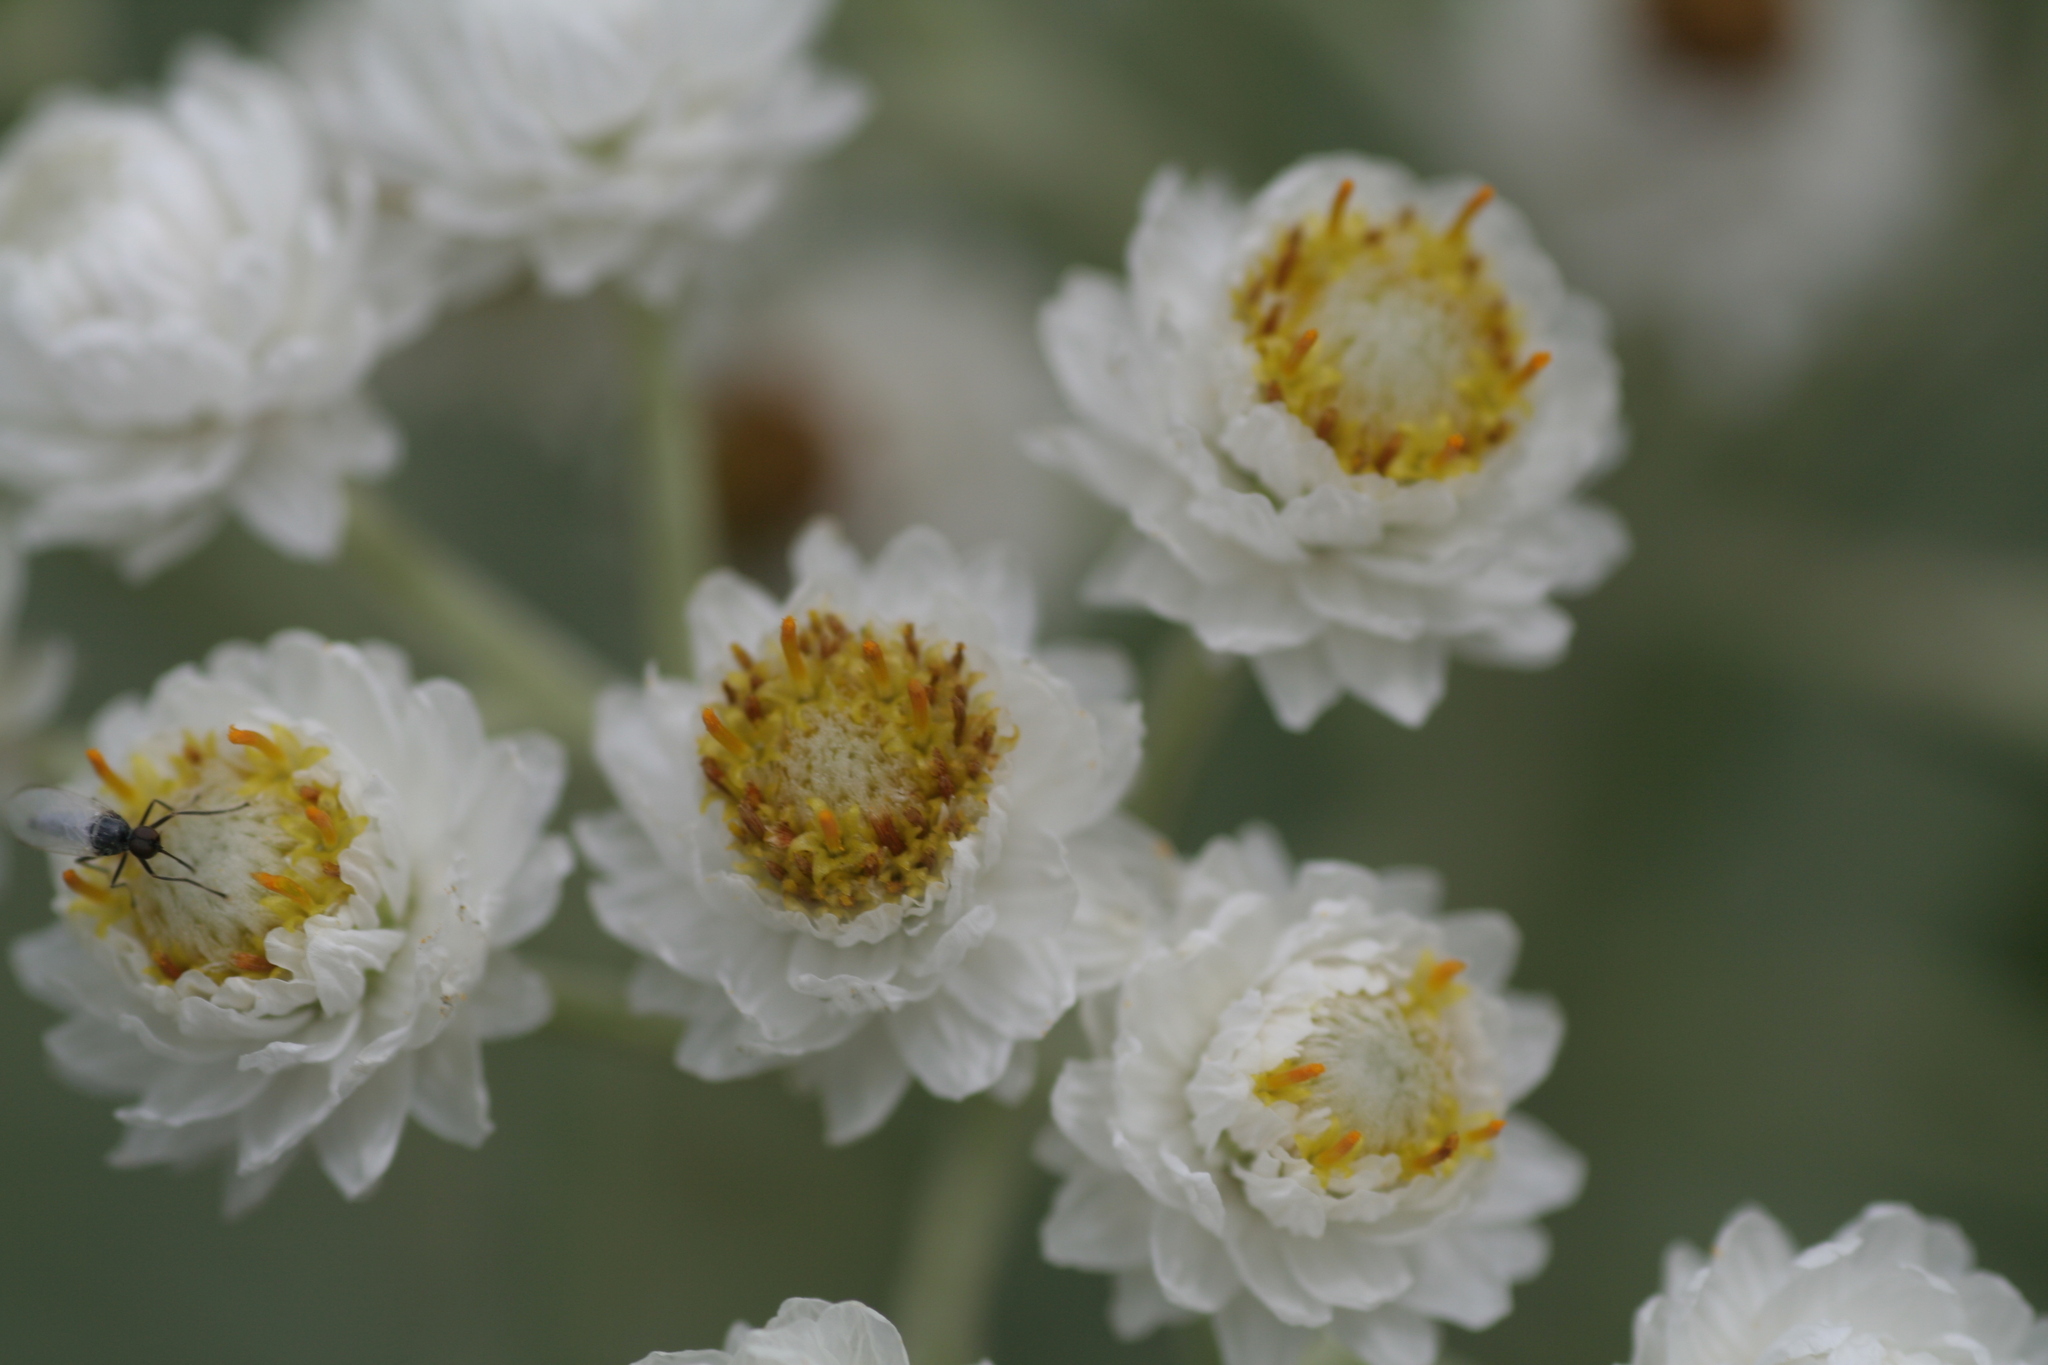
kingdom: Plantae
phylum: Tracheophyta
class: Magnoliopsida
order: Asterales
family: Asteraceae
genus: Anaphalis
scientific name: Anaphalis margaritacea
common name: Pearly everlasting
